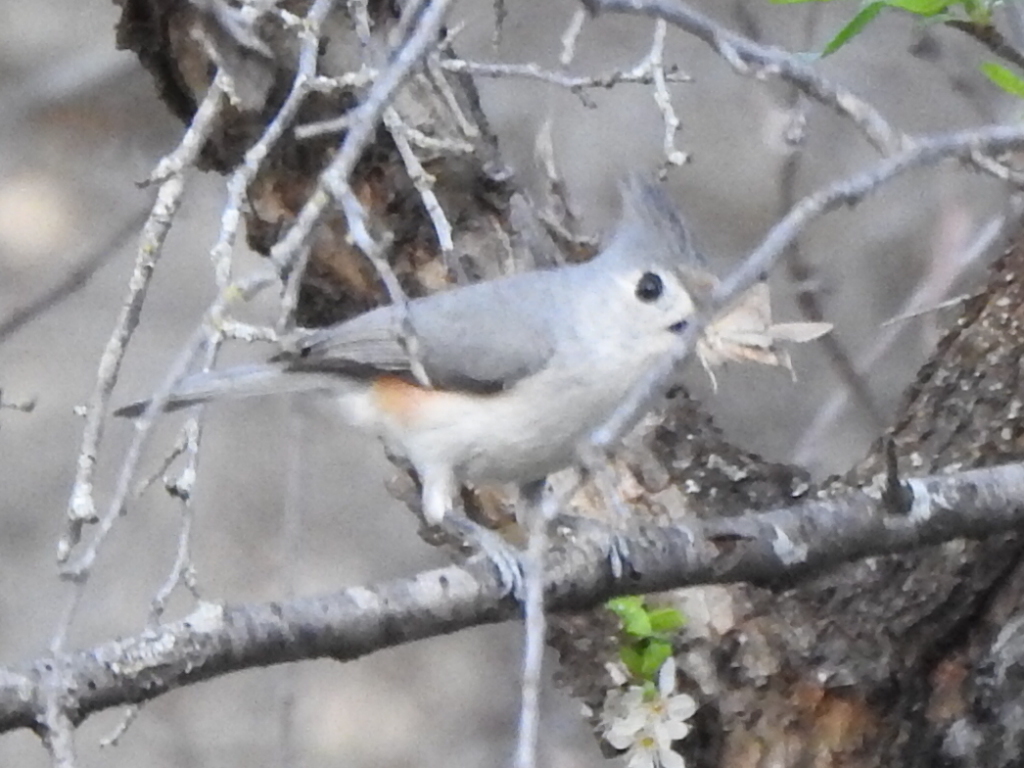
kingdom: Animalia
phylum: Chordata
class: Aves
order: Passeriformes
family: Paridae
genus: Baeolophus
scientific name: Baeolophus
